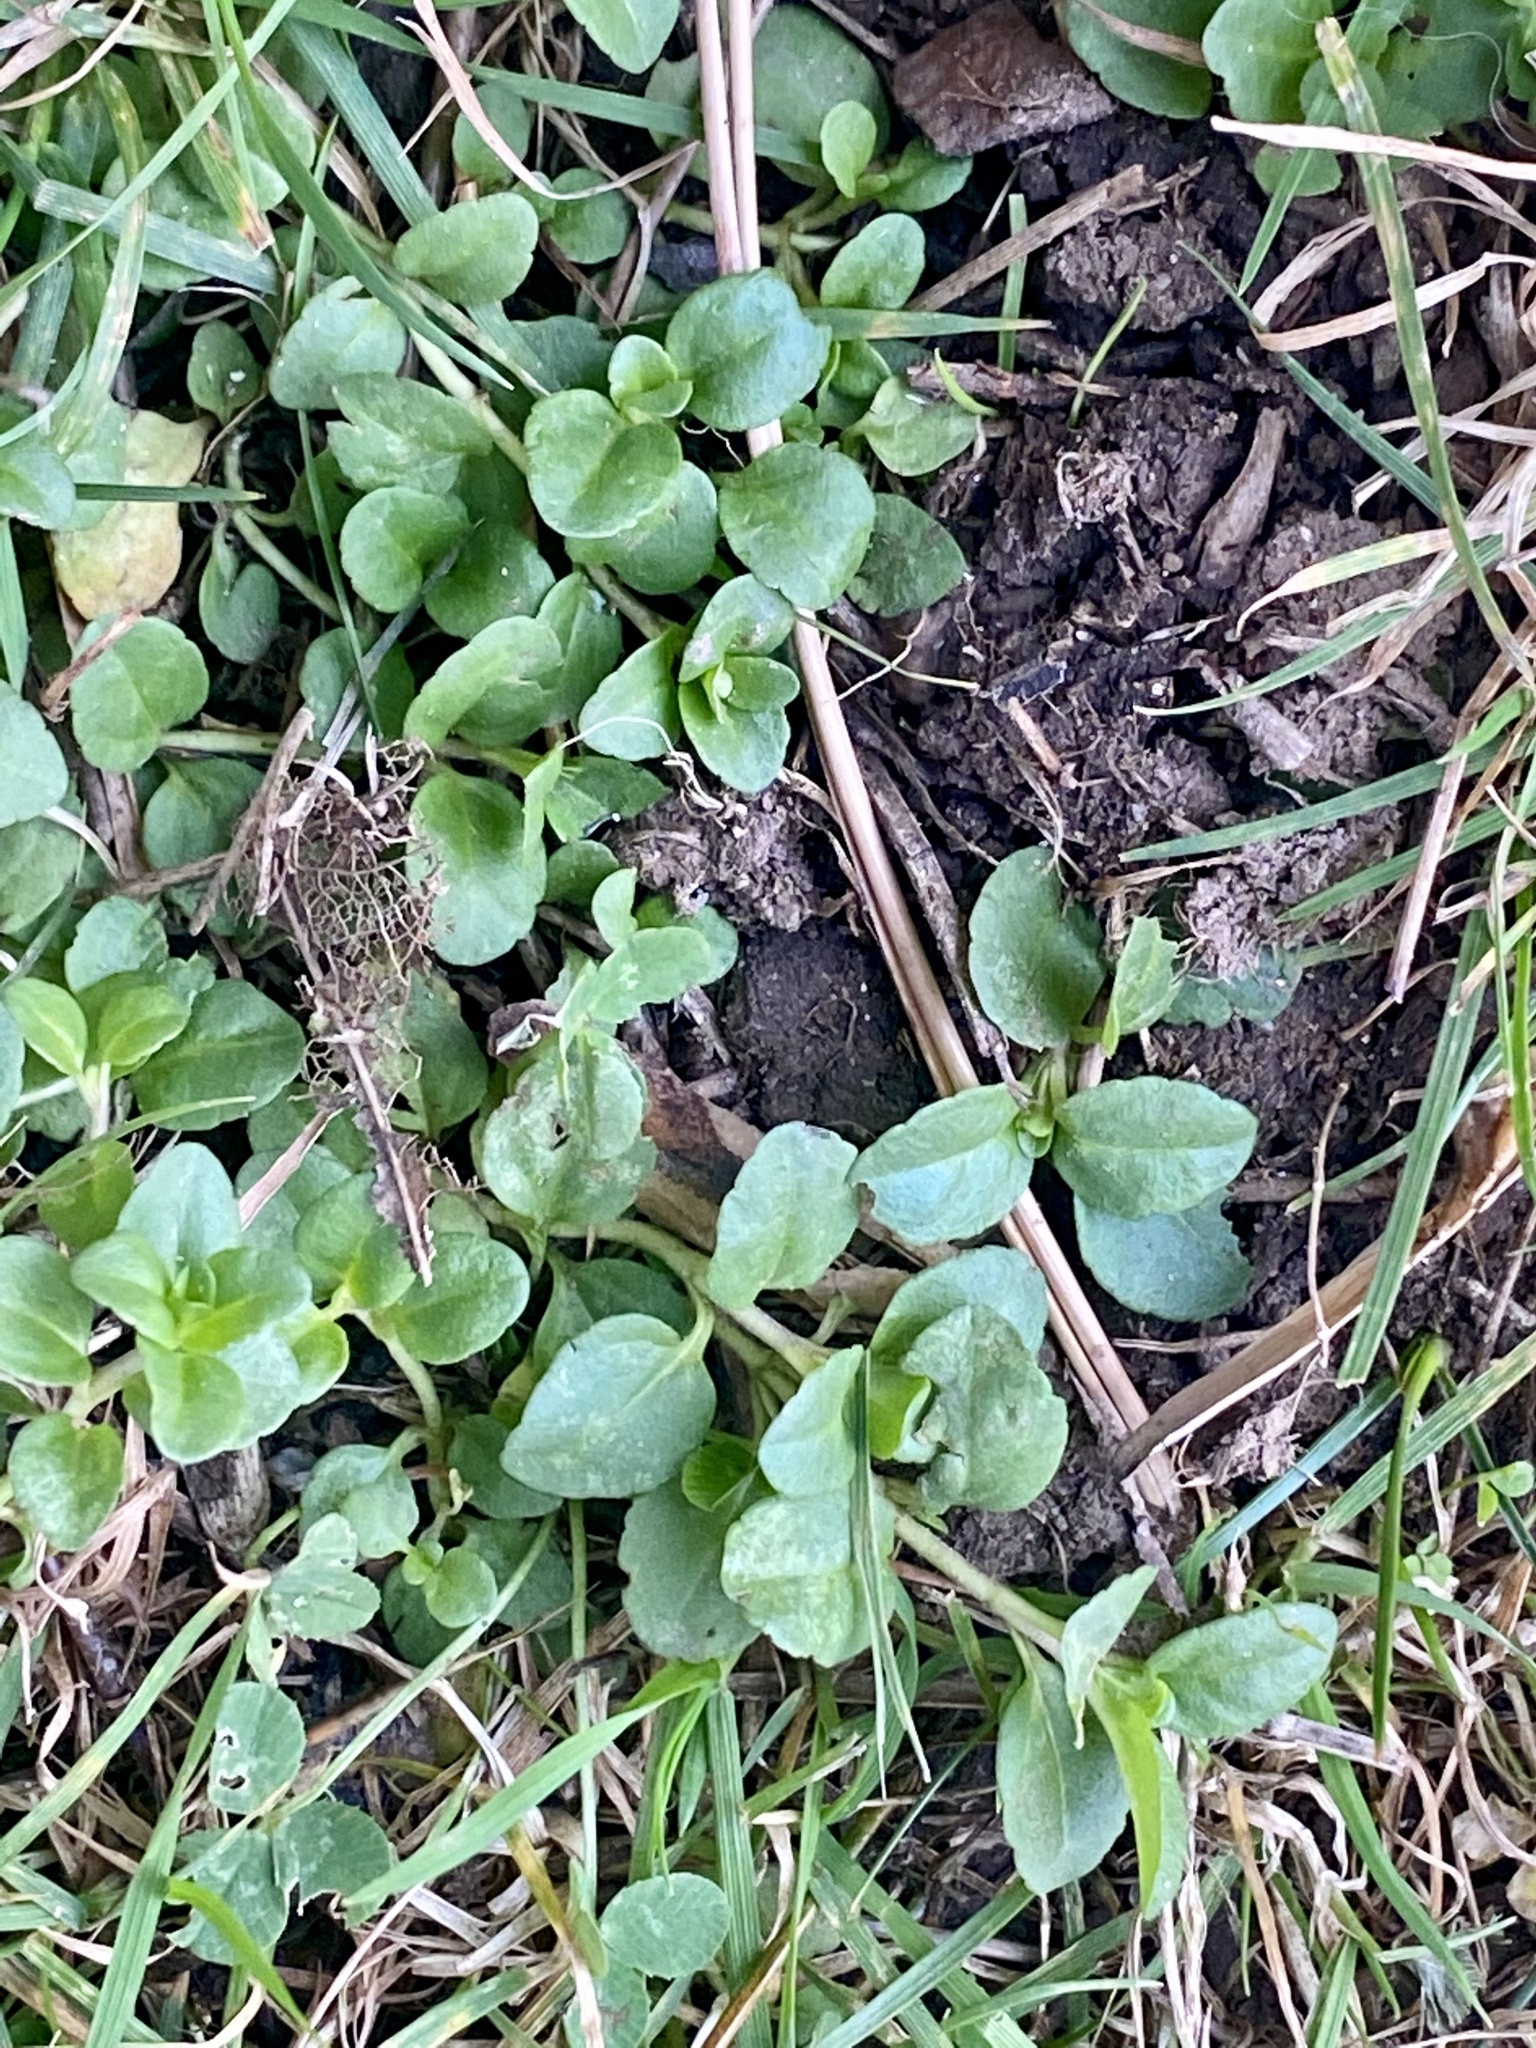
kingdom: Plantae
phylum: Tracheophyta
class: Magnoliopsida
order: Lamiales
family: Plantaginaceae
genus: Veronica
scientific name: Veronica serpyllifolia
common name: Thyme-leaved speedwell
